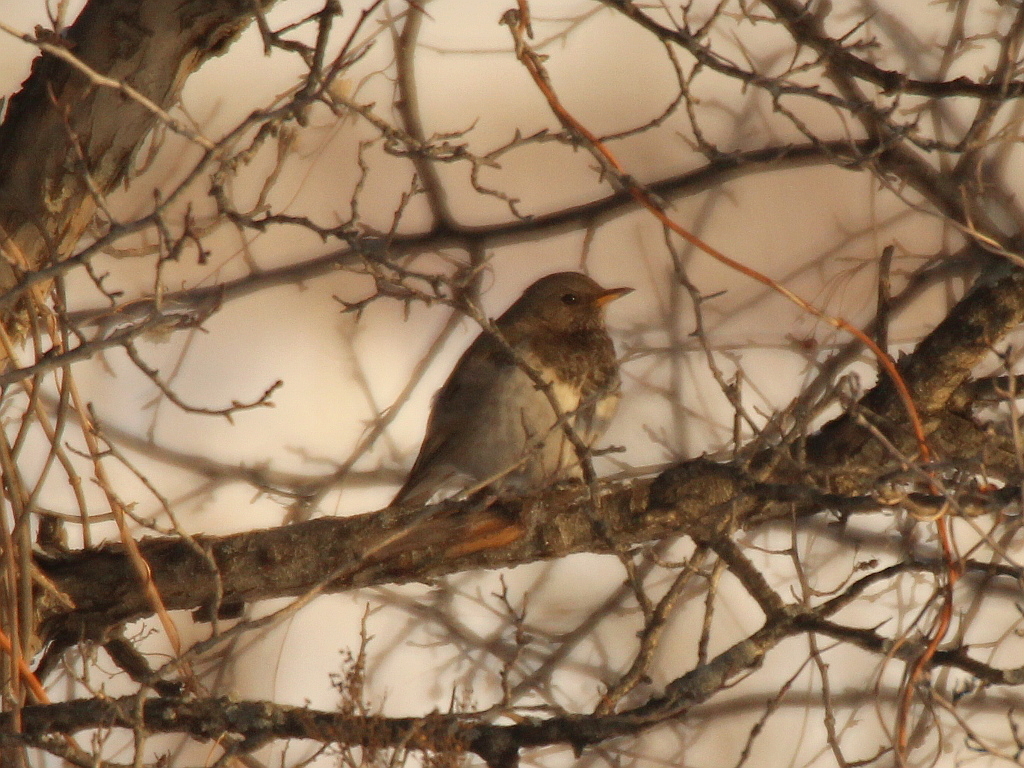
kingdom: Animalia
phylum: Chordata
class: Aves
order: Passeriformes
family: Turdidae
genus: Turdus
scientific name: Turdus atrogularis
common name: Black-throated thrush
